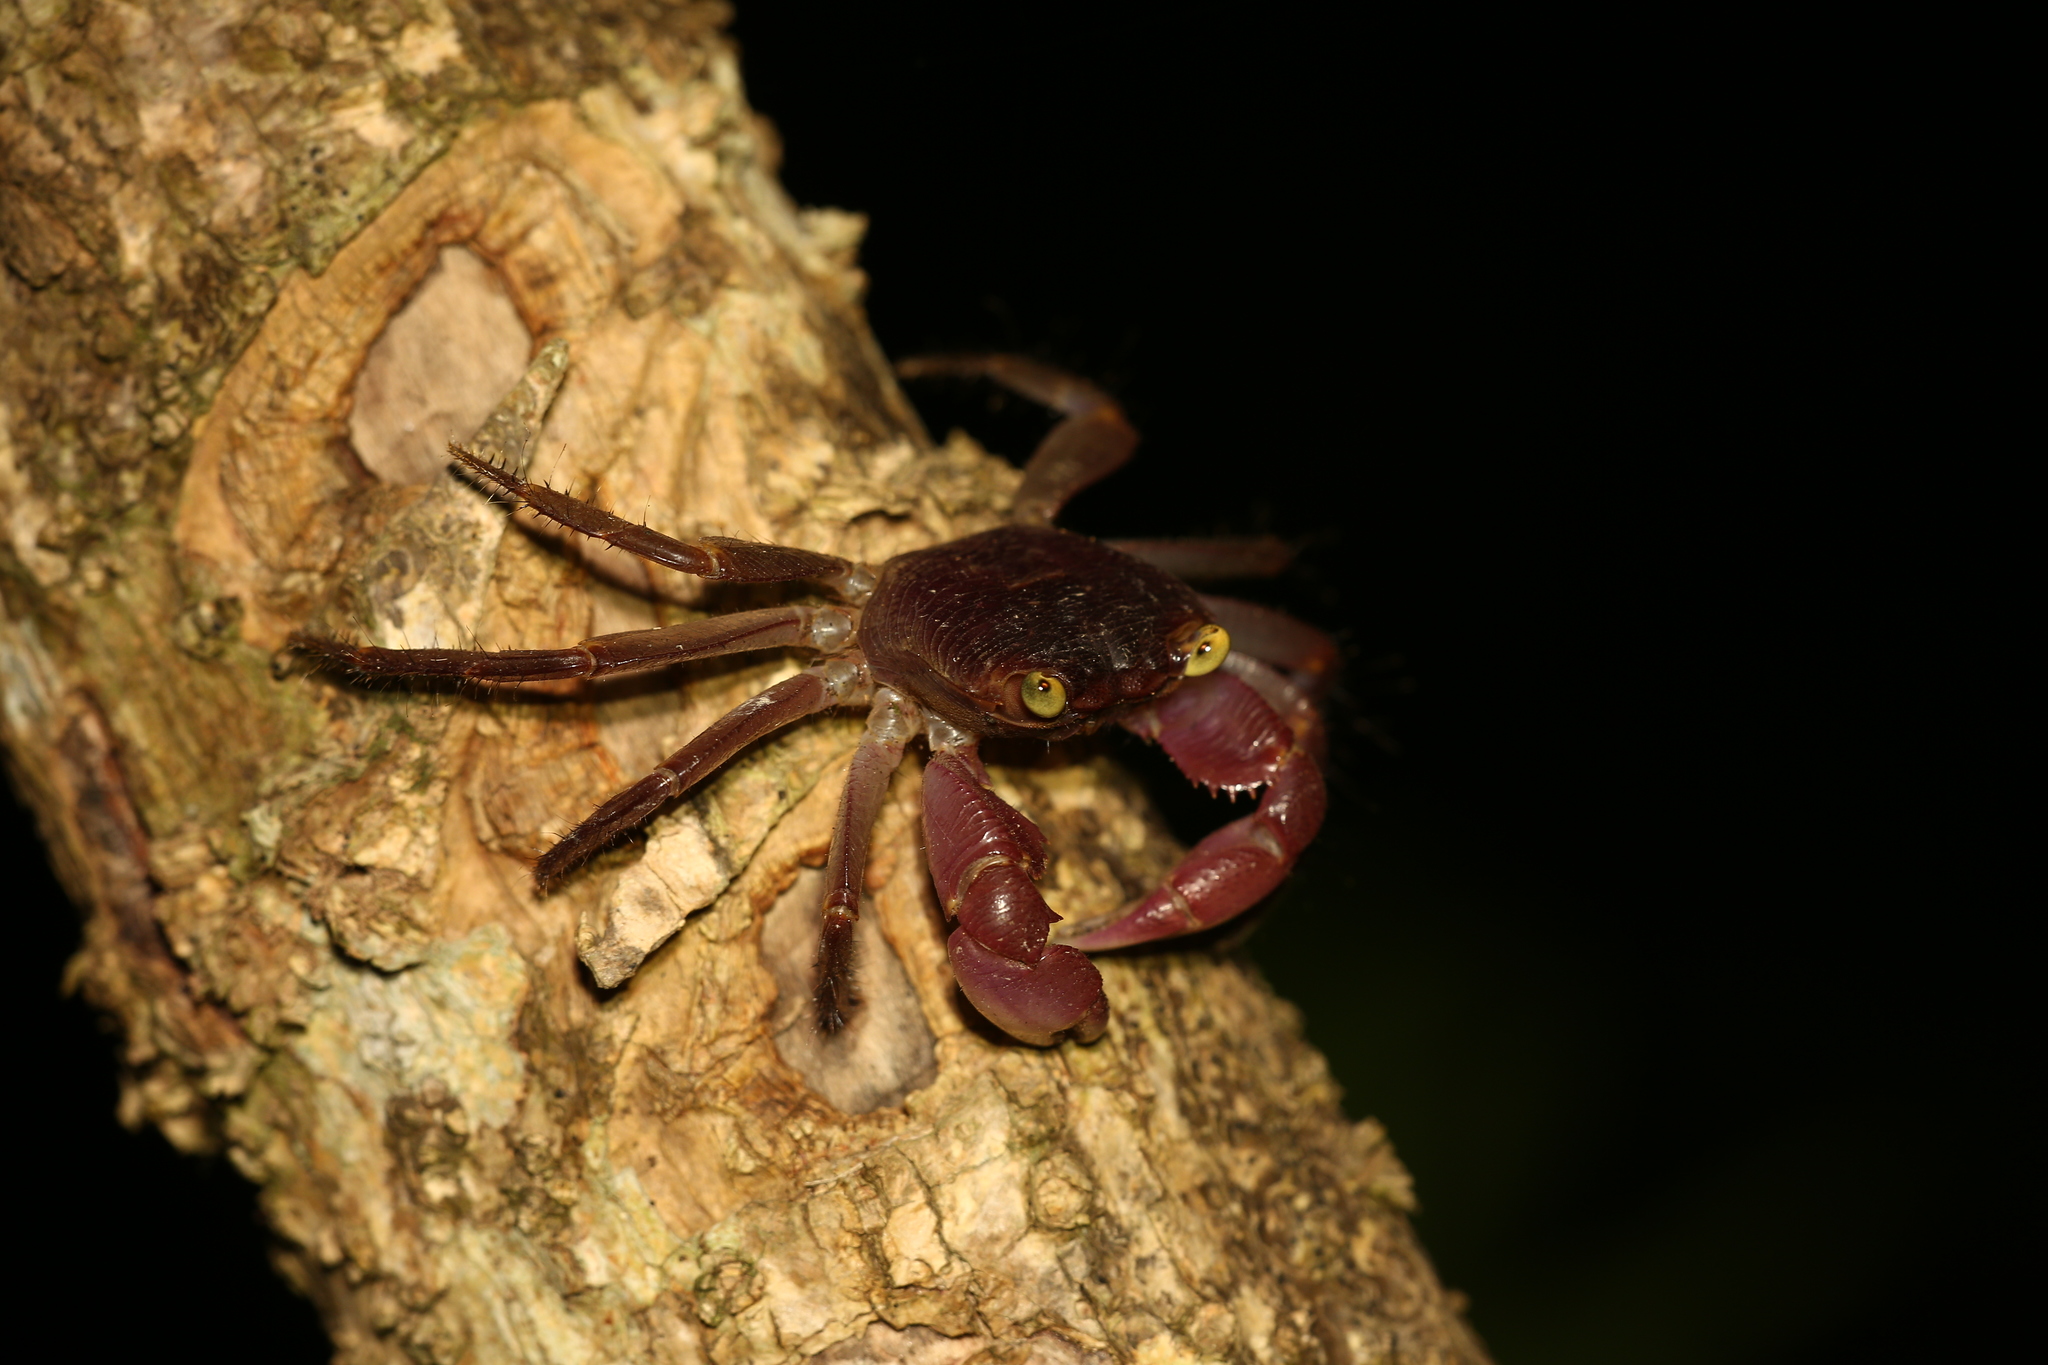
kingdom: Animalia
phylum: Arthropoda
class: Malacostraca
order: Decapoda
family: Grapsidae
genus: Geograpsus
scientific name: Geograpsus grayi
